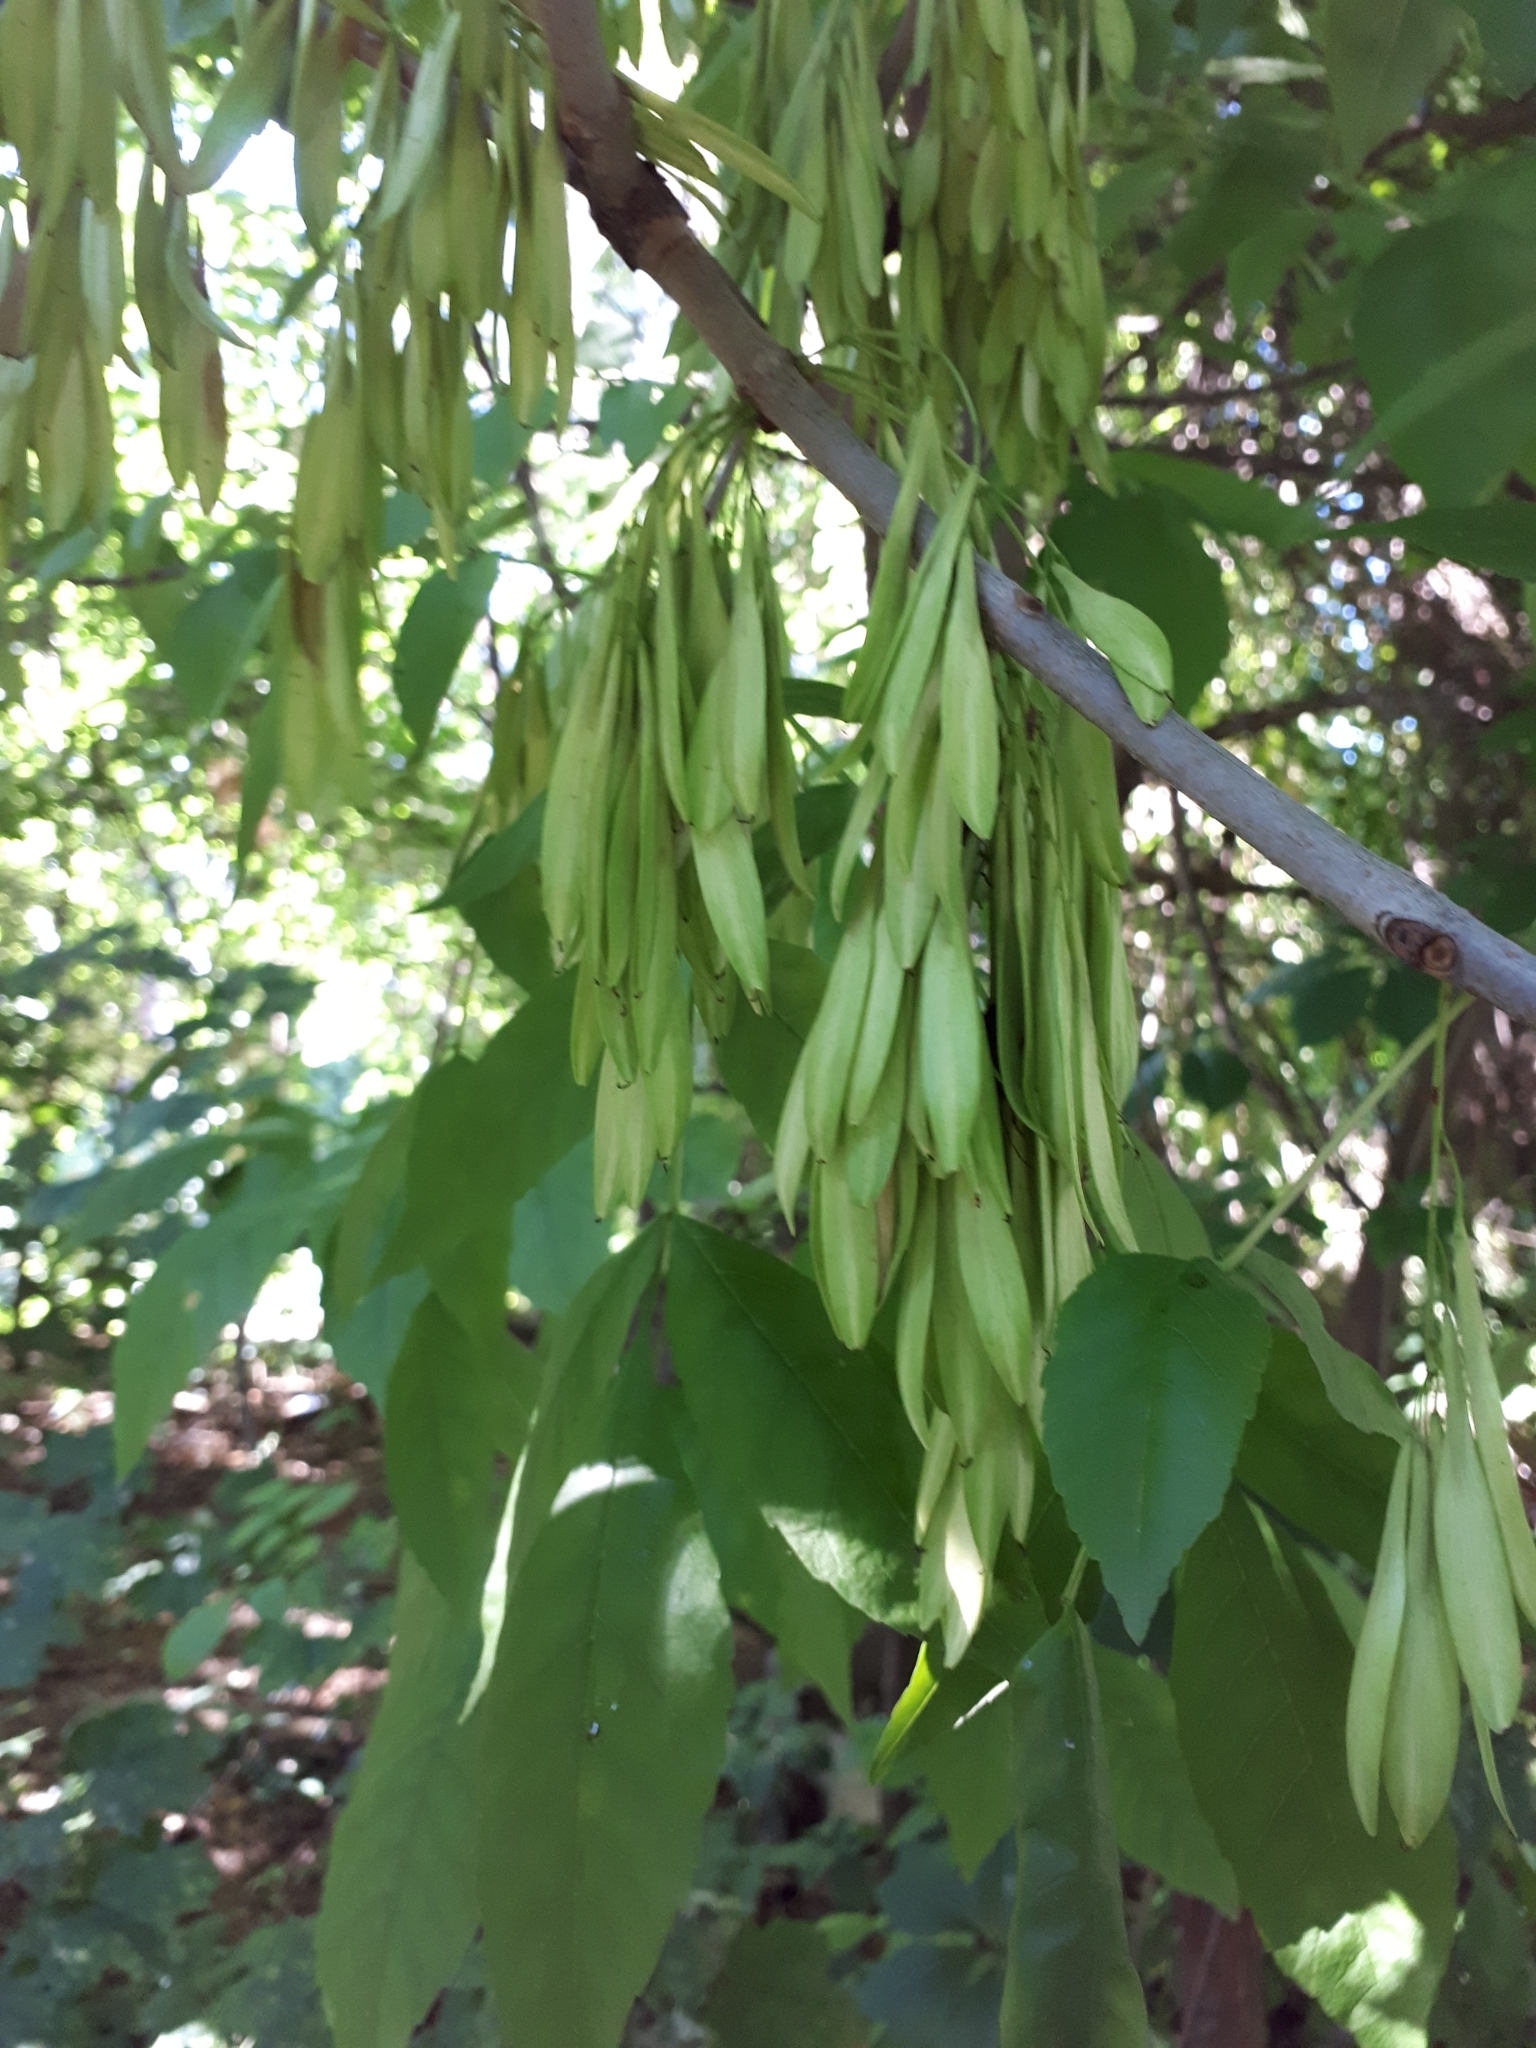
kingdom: Plantae
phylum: Tracheophyta
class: Magnoliopsida
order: Lamiales
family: Oleaceae
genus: Fraxinus
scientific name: Fraxinus pennsylvanica
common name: Green ash
